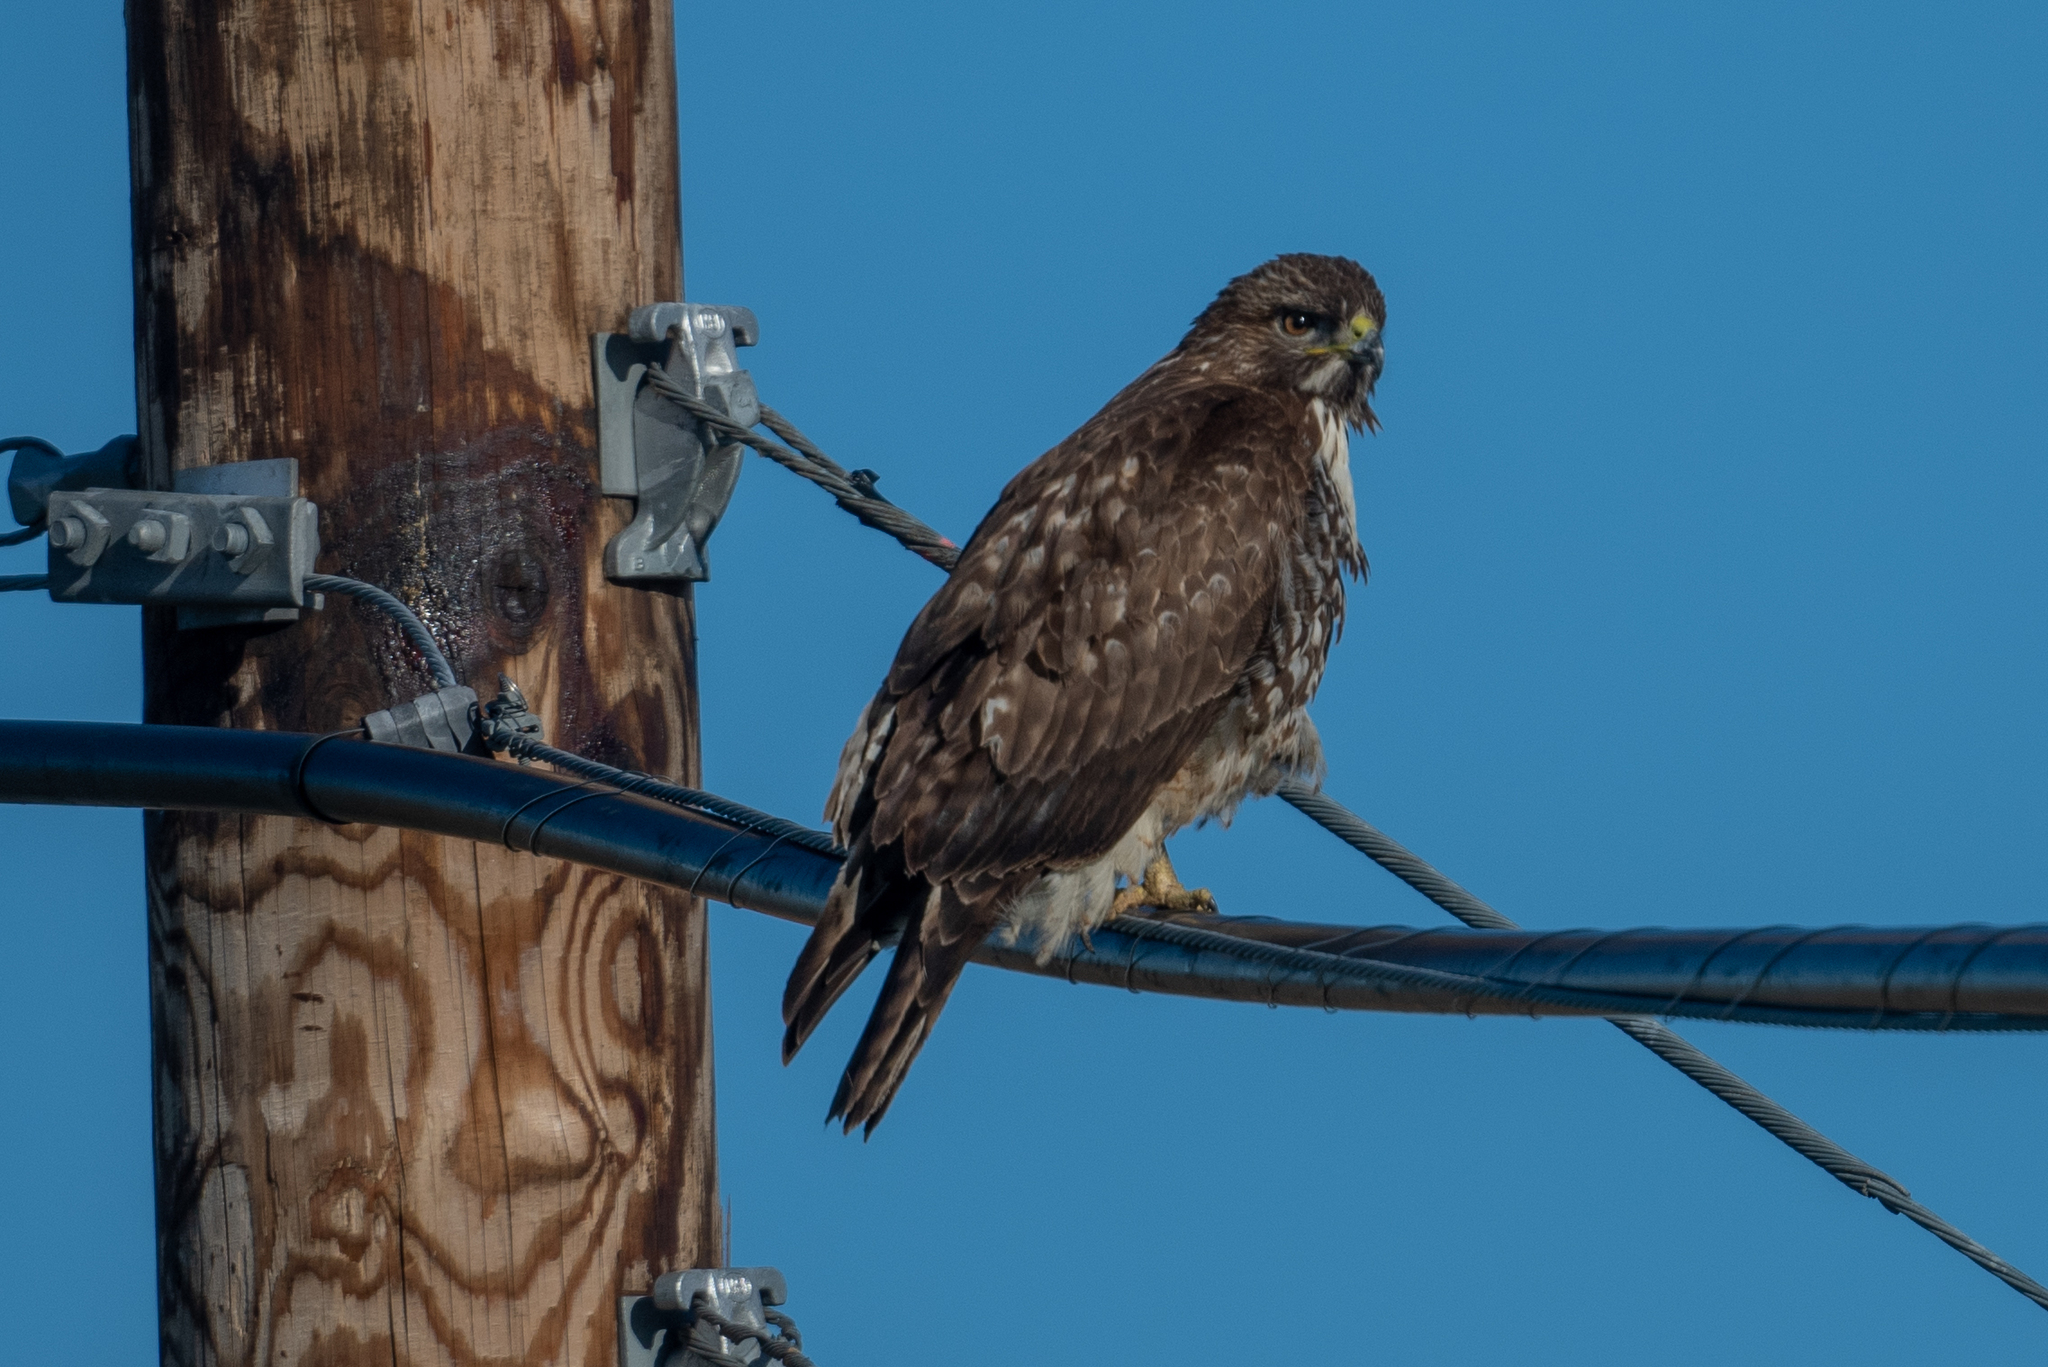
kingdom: Animalia
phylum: Chordata
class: Aves
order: Accipitriformes
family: Accipitridae
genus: Buteo
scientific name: Buteo jamaicensis
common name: Red-tailed hawk
